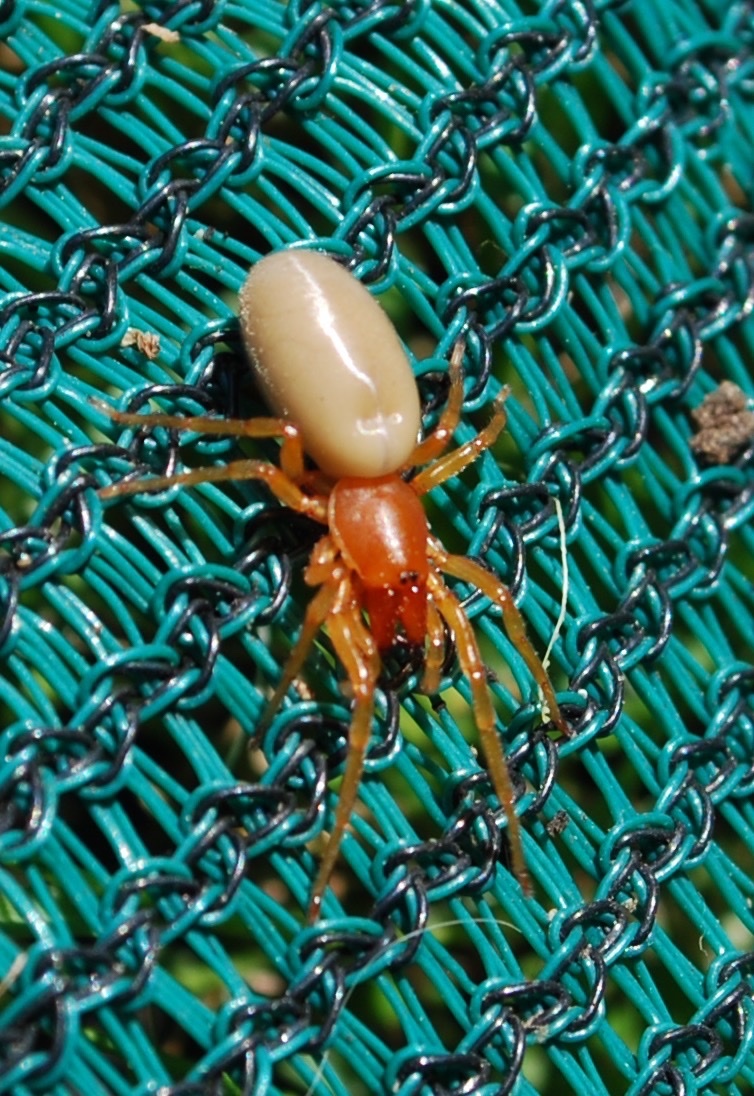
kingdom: Animalia
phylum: Arthropoda
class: Arachnida
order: Araneae
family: Dysderidae
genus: Dysdera
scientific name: Dysdera crocata
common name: Woodlouse spider
